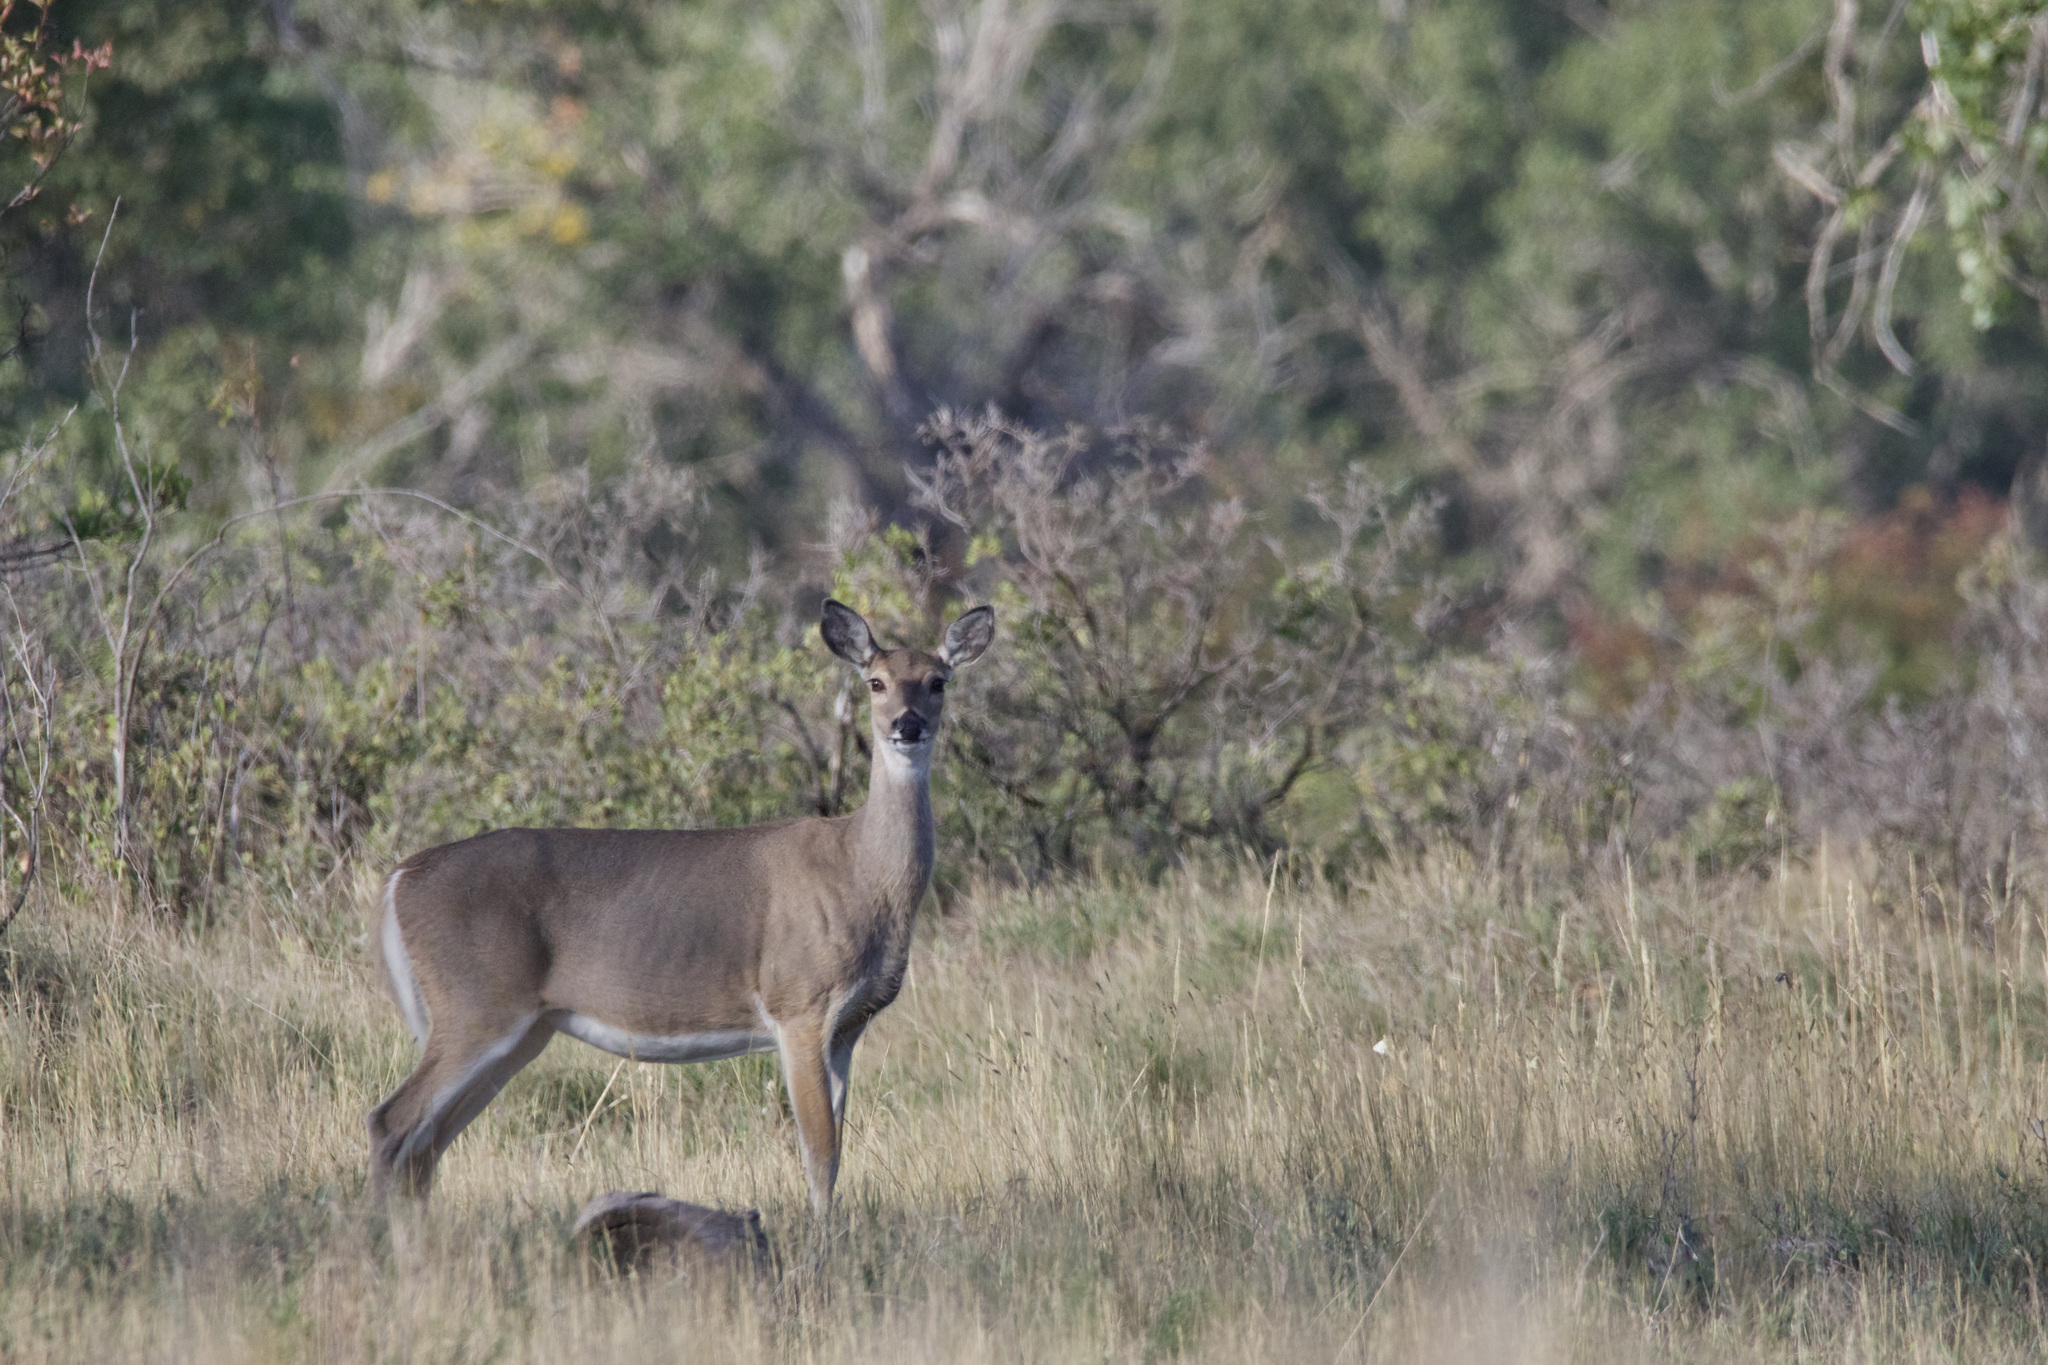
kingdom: Animalia
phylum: Chordata
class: Mammalia
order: Artiodactyla
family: Cervidae
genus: Odocoileus
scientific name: Odocoileus virginianus
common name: White-tailed deer
